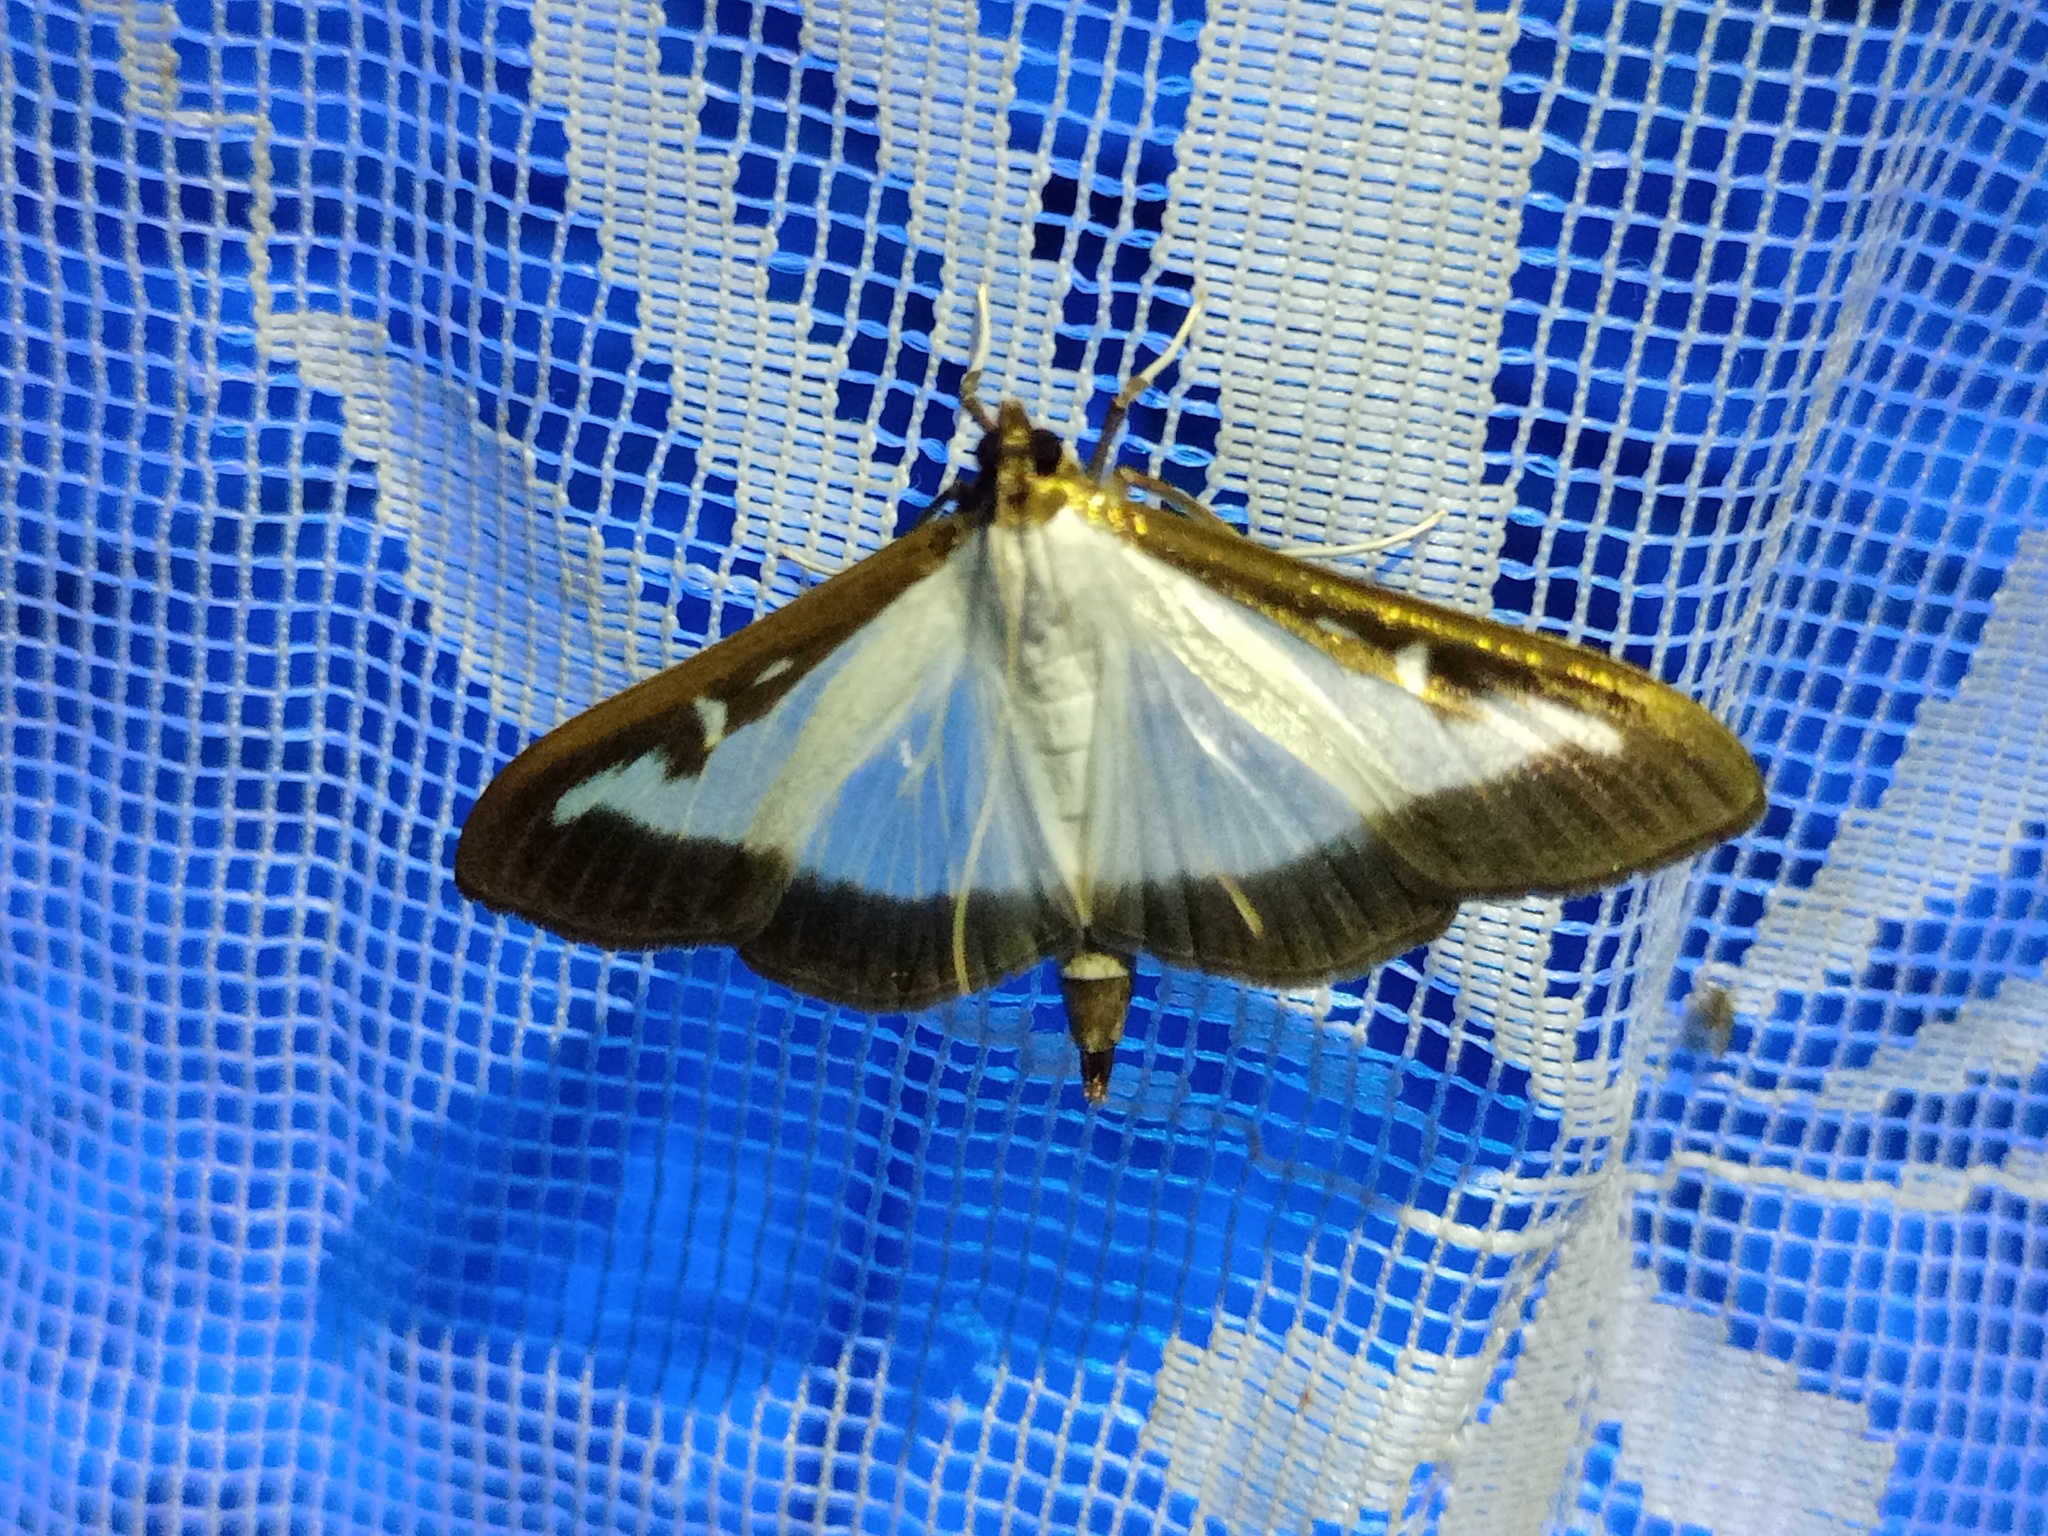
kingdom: Animalia
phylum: Arthropoda
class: Insecta
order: Lepidoptera
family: Crambidae
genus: Cydalima
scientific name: Cydalima perspectalis
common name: Box tree moth
